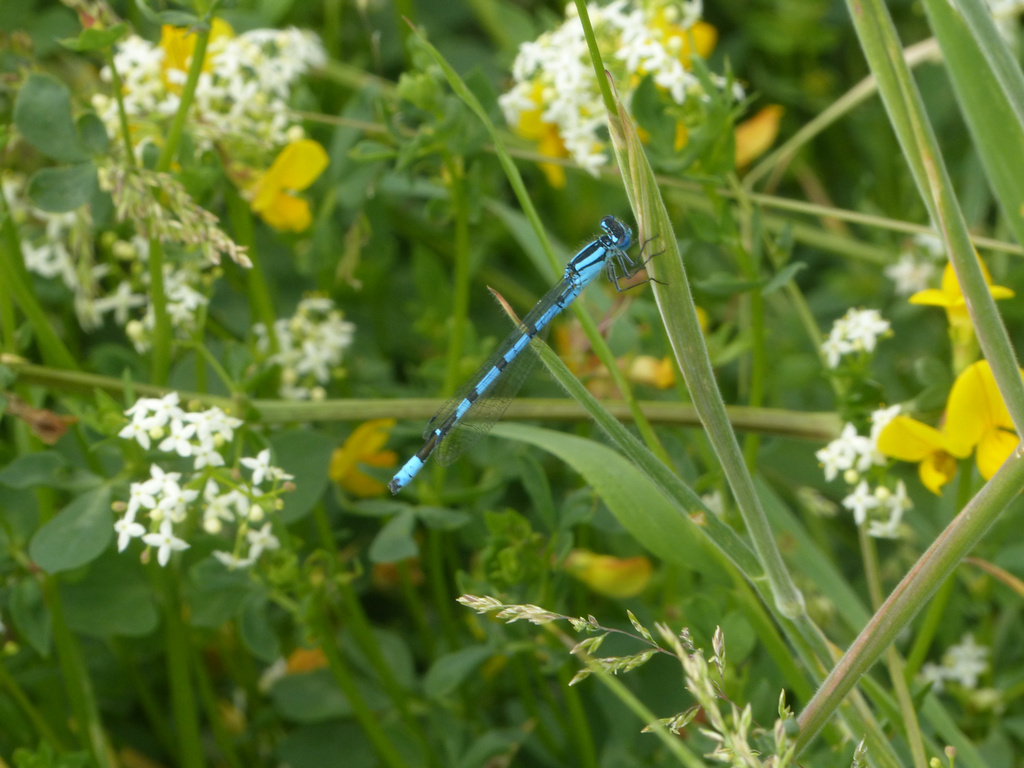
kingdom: Animalia
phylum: Arthropoda
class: Insecta
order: Odonata
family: Coenagrionidae
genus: Enallagma
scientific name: Enallagma cyathigerum
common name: Common blue damselfly
